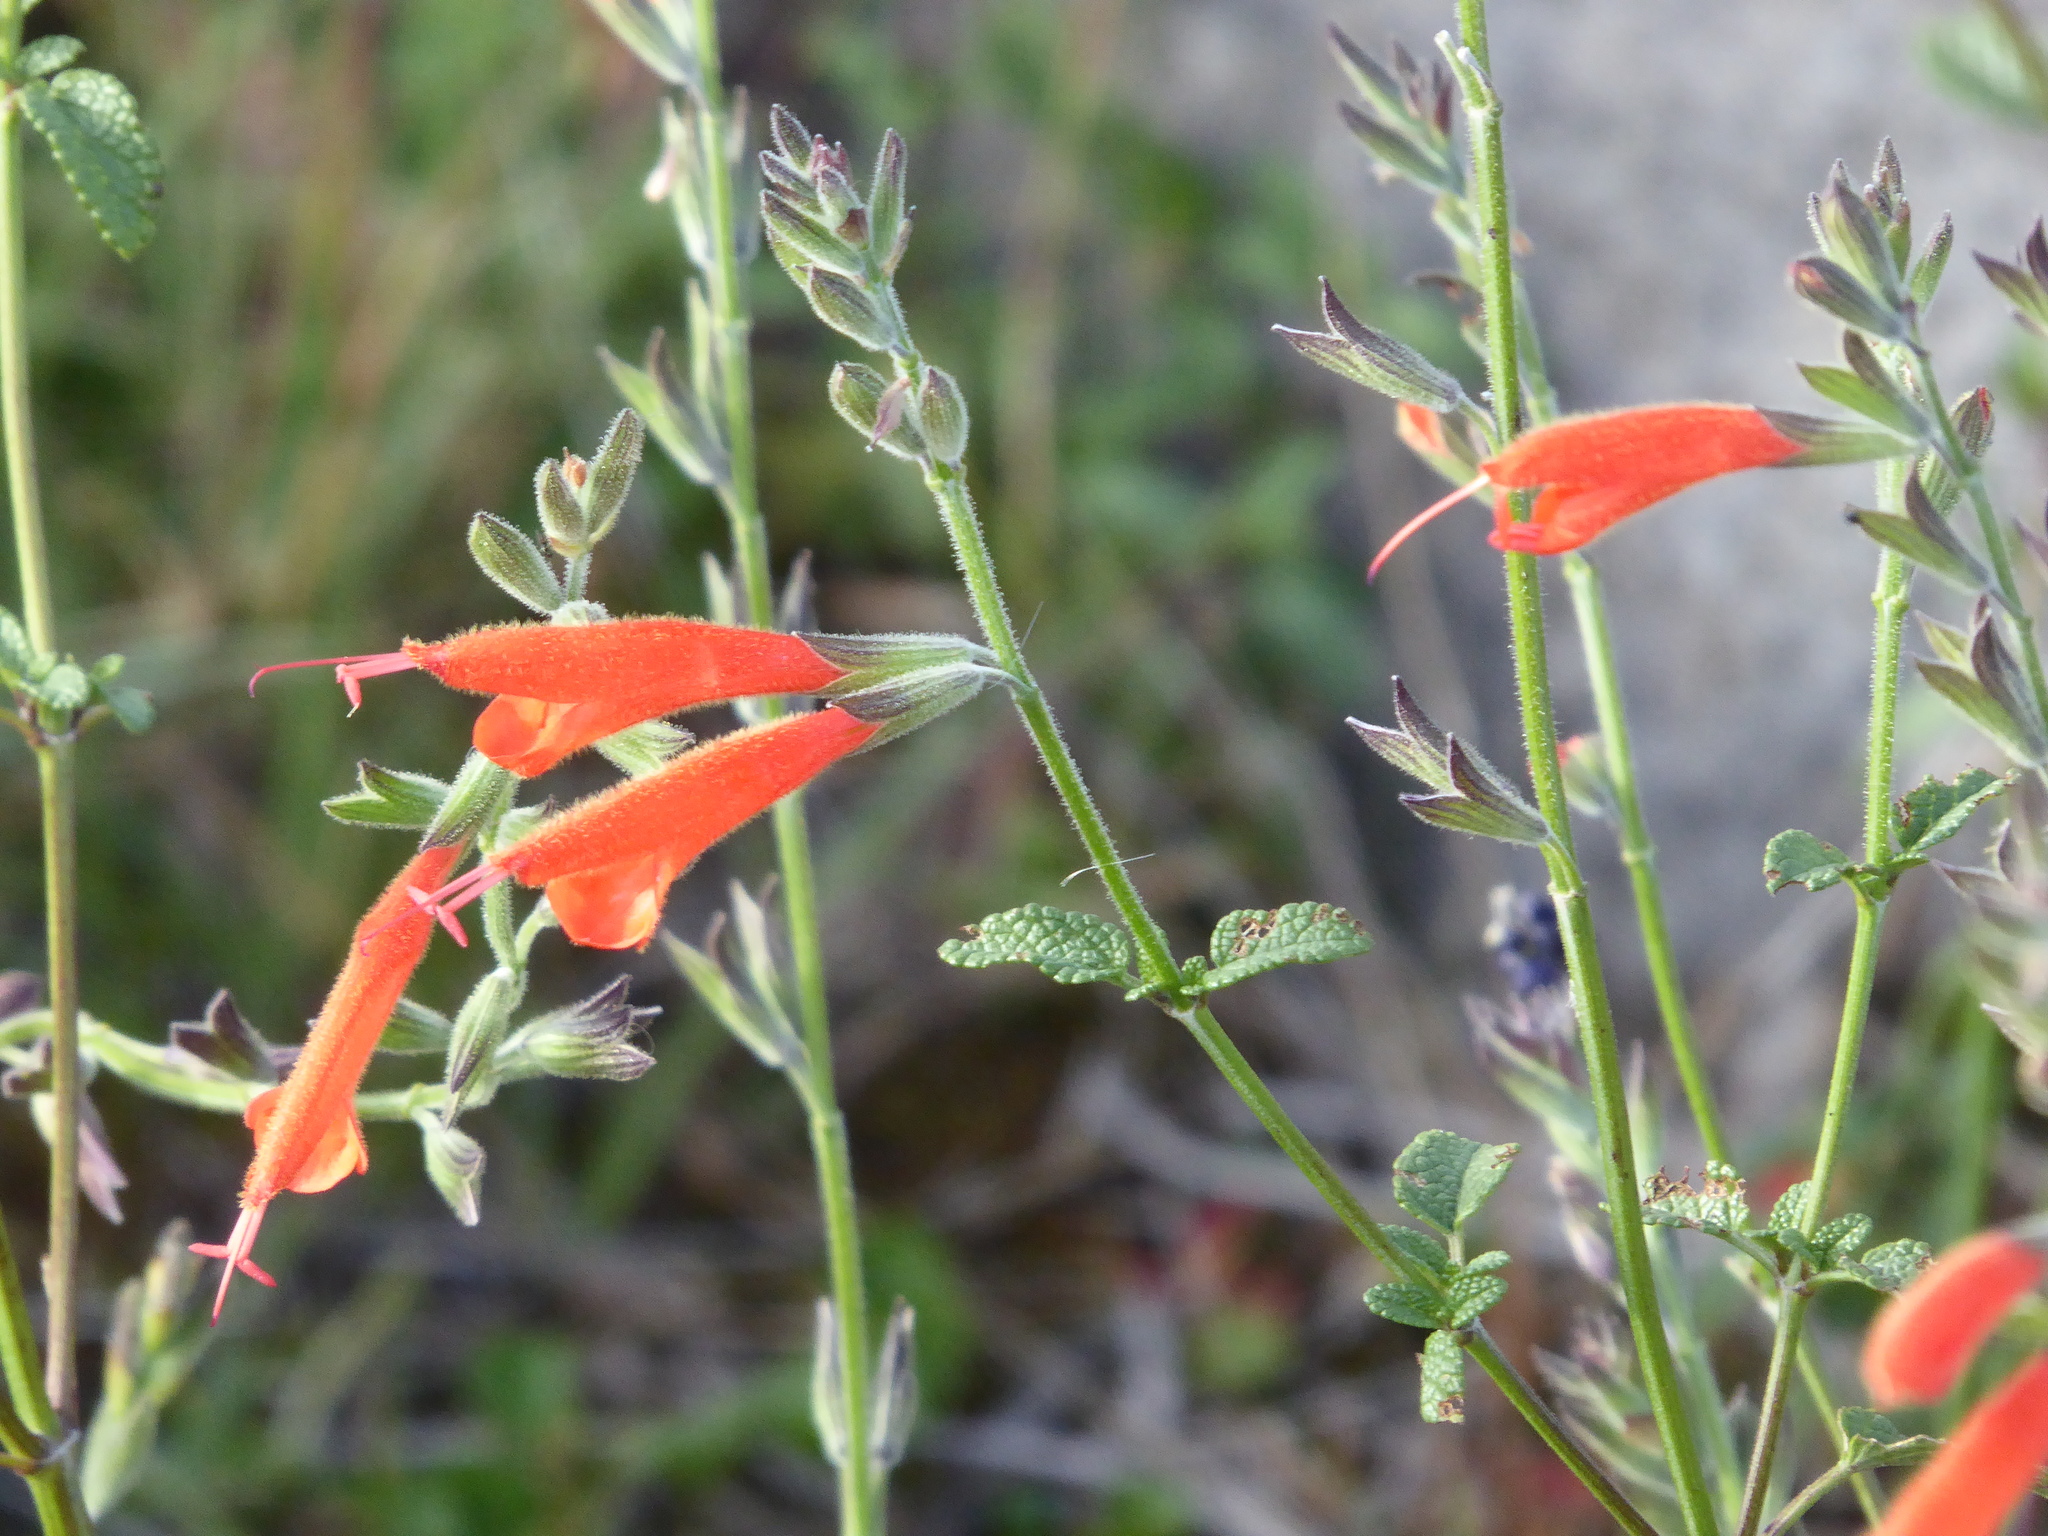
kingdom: Plantae
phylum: Tracheophyta
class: Magnoliopsida
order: Lamiales
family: Lamiaceae
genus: Salvia
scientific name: Salvia oppositiflora
